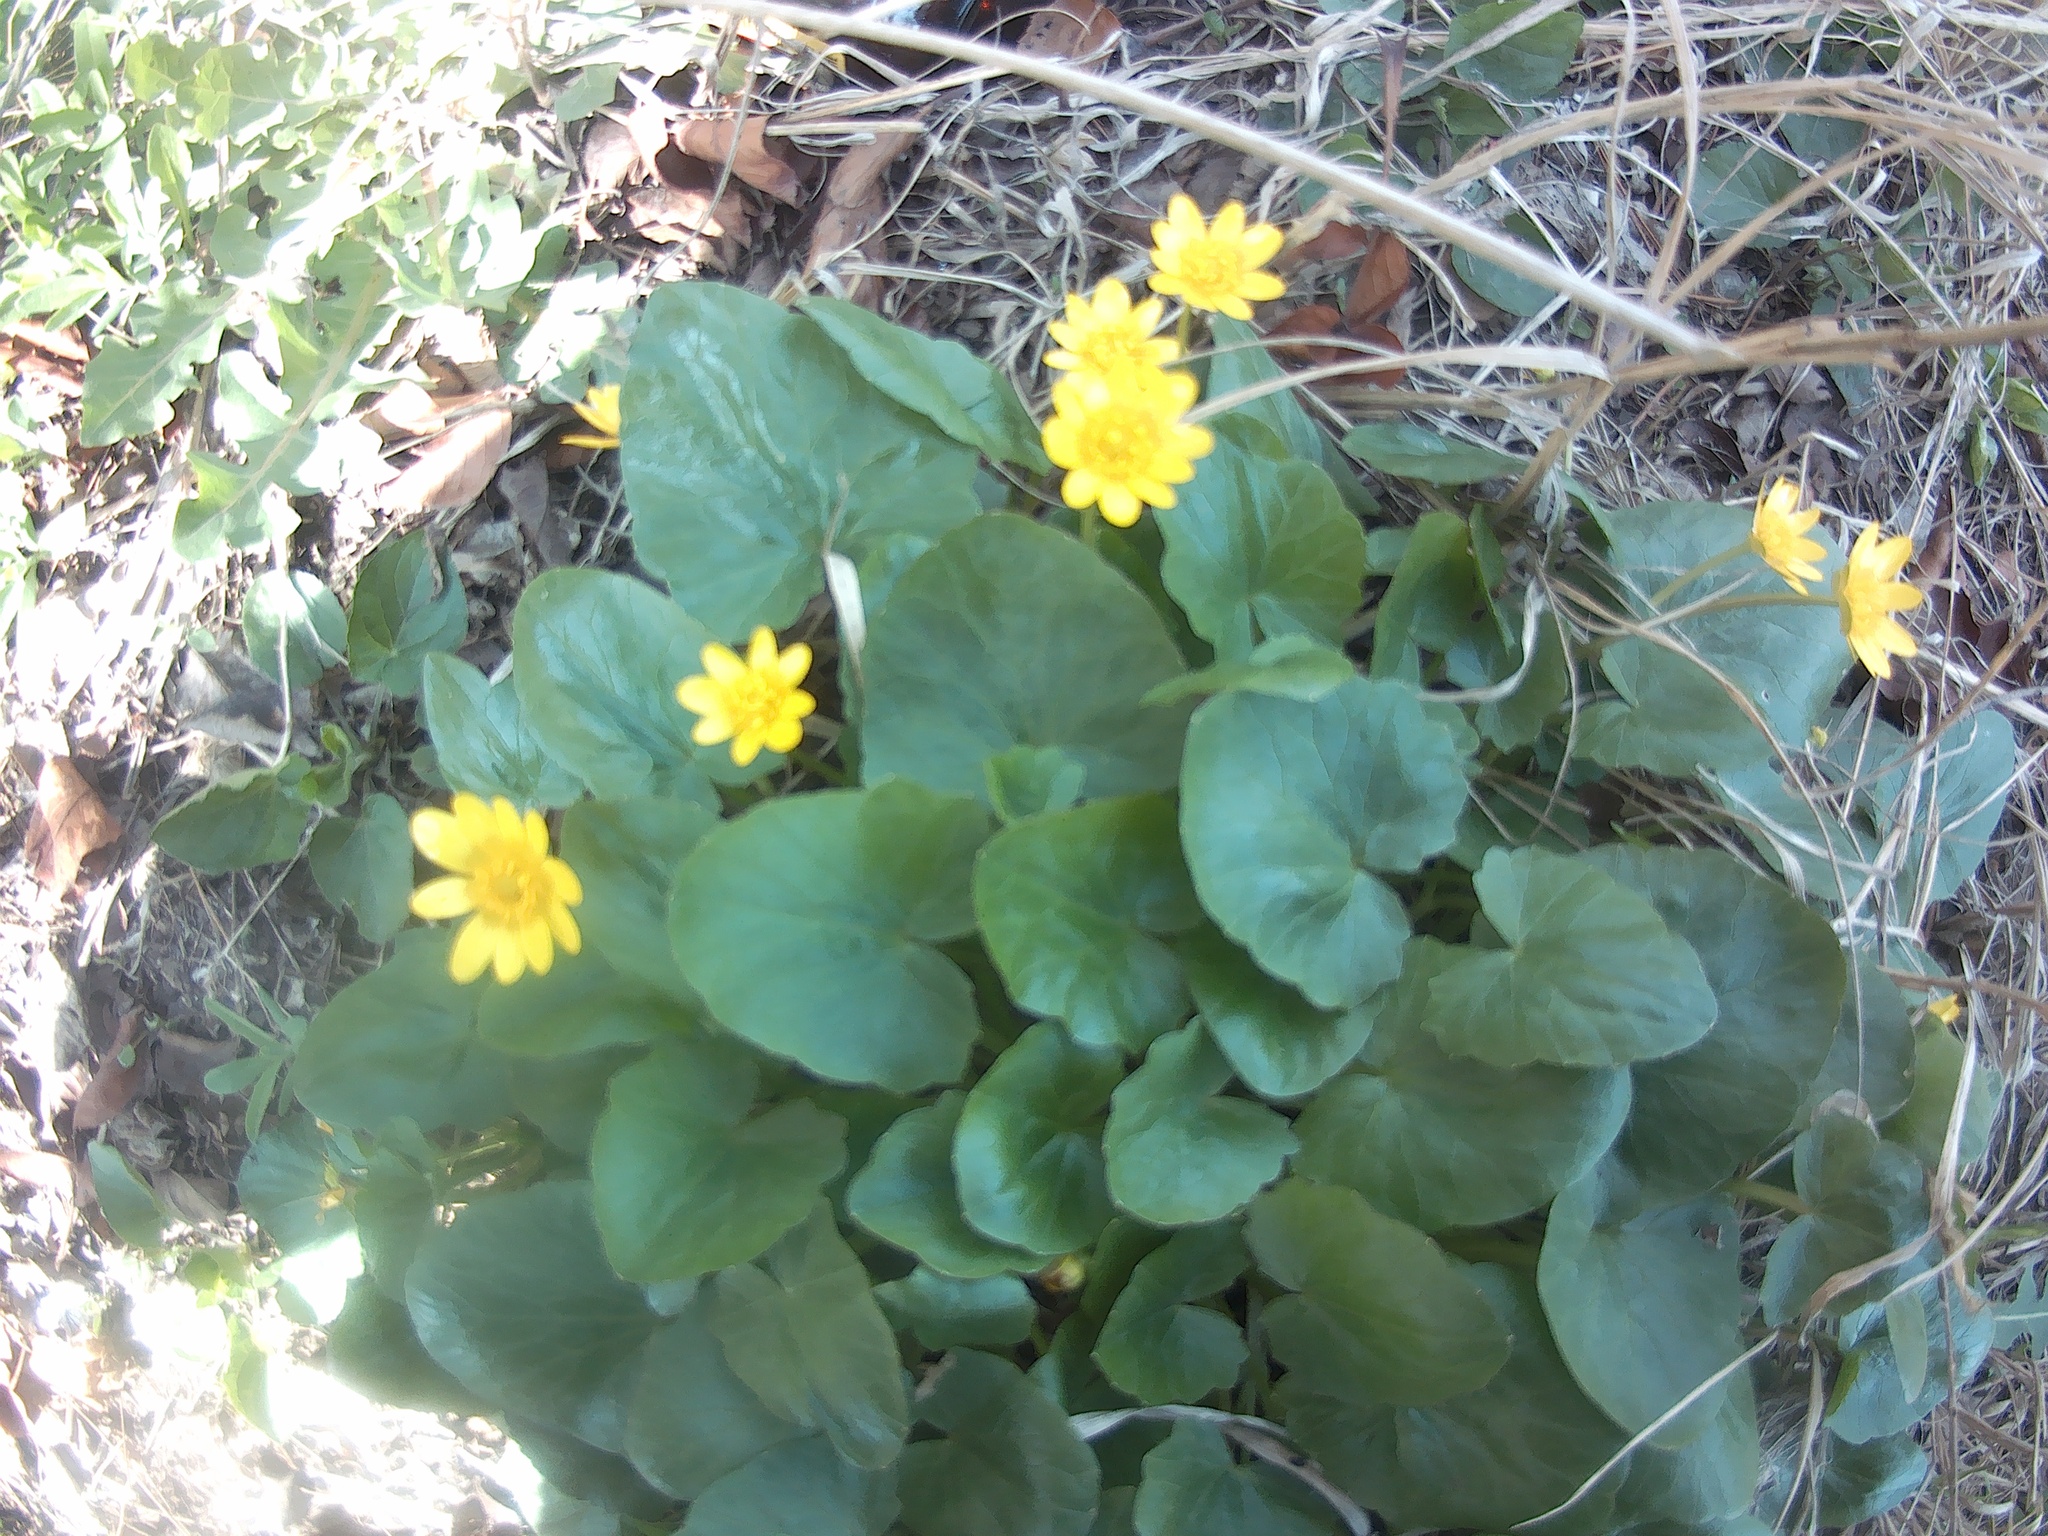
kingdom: Plantae
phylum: Tracheophyta
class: Magnoliopsida
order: Ranunculales
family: Ranunculaceae
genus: Ficaria
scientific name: Ficaria verna
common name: Lesser celandine
